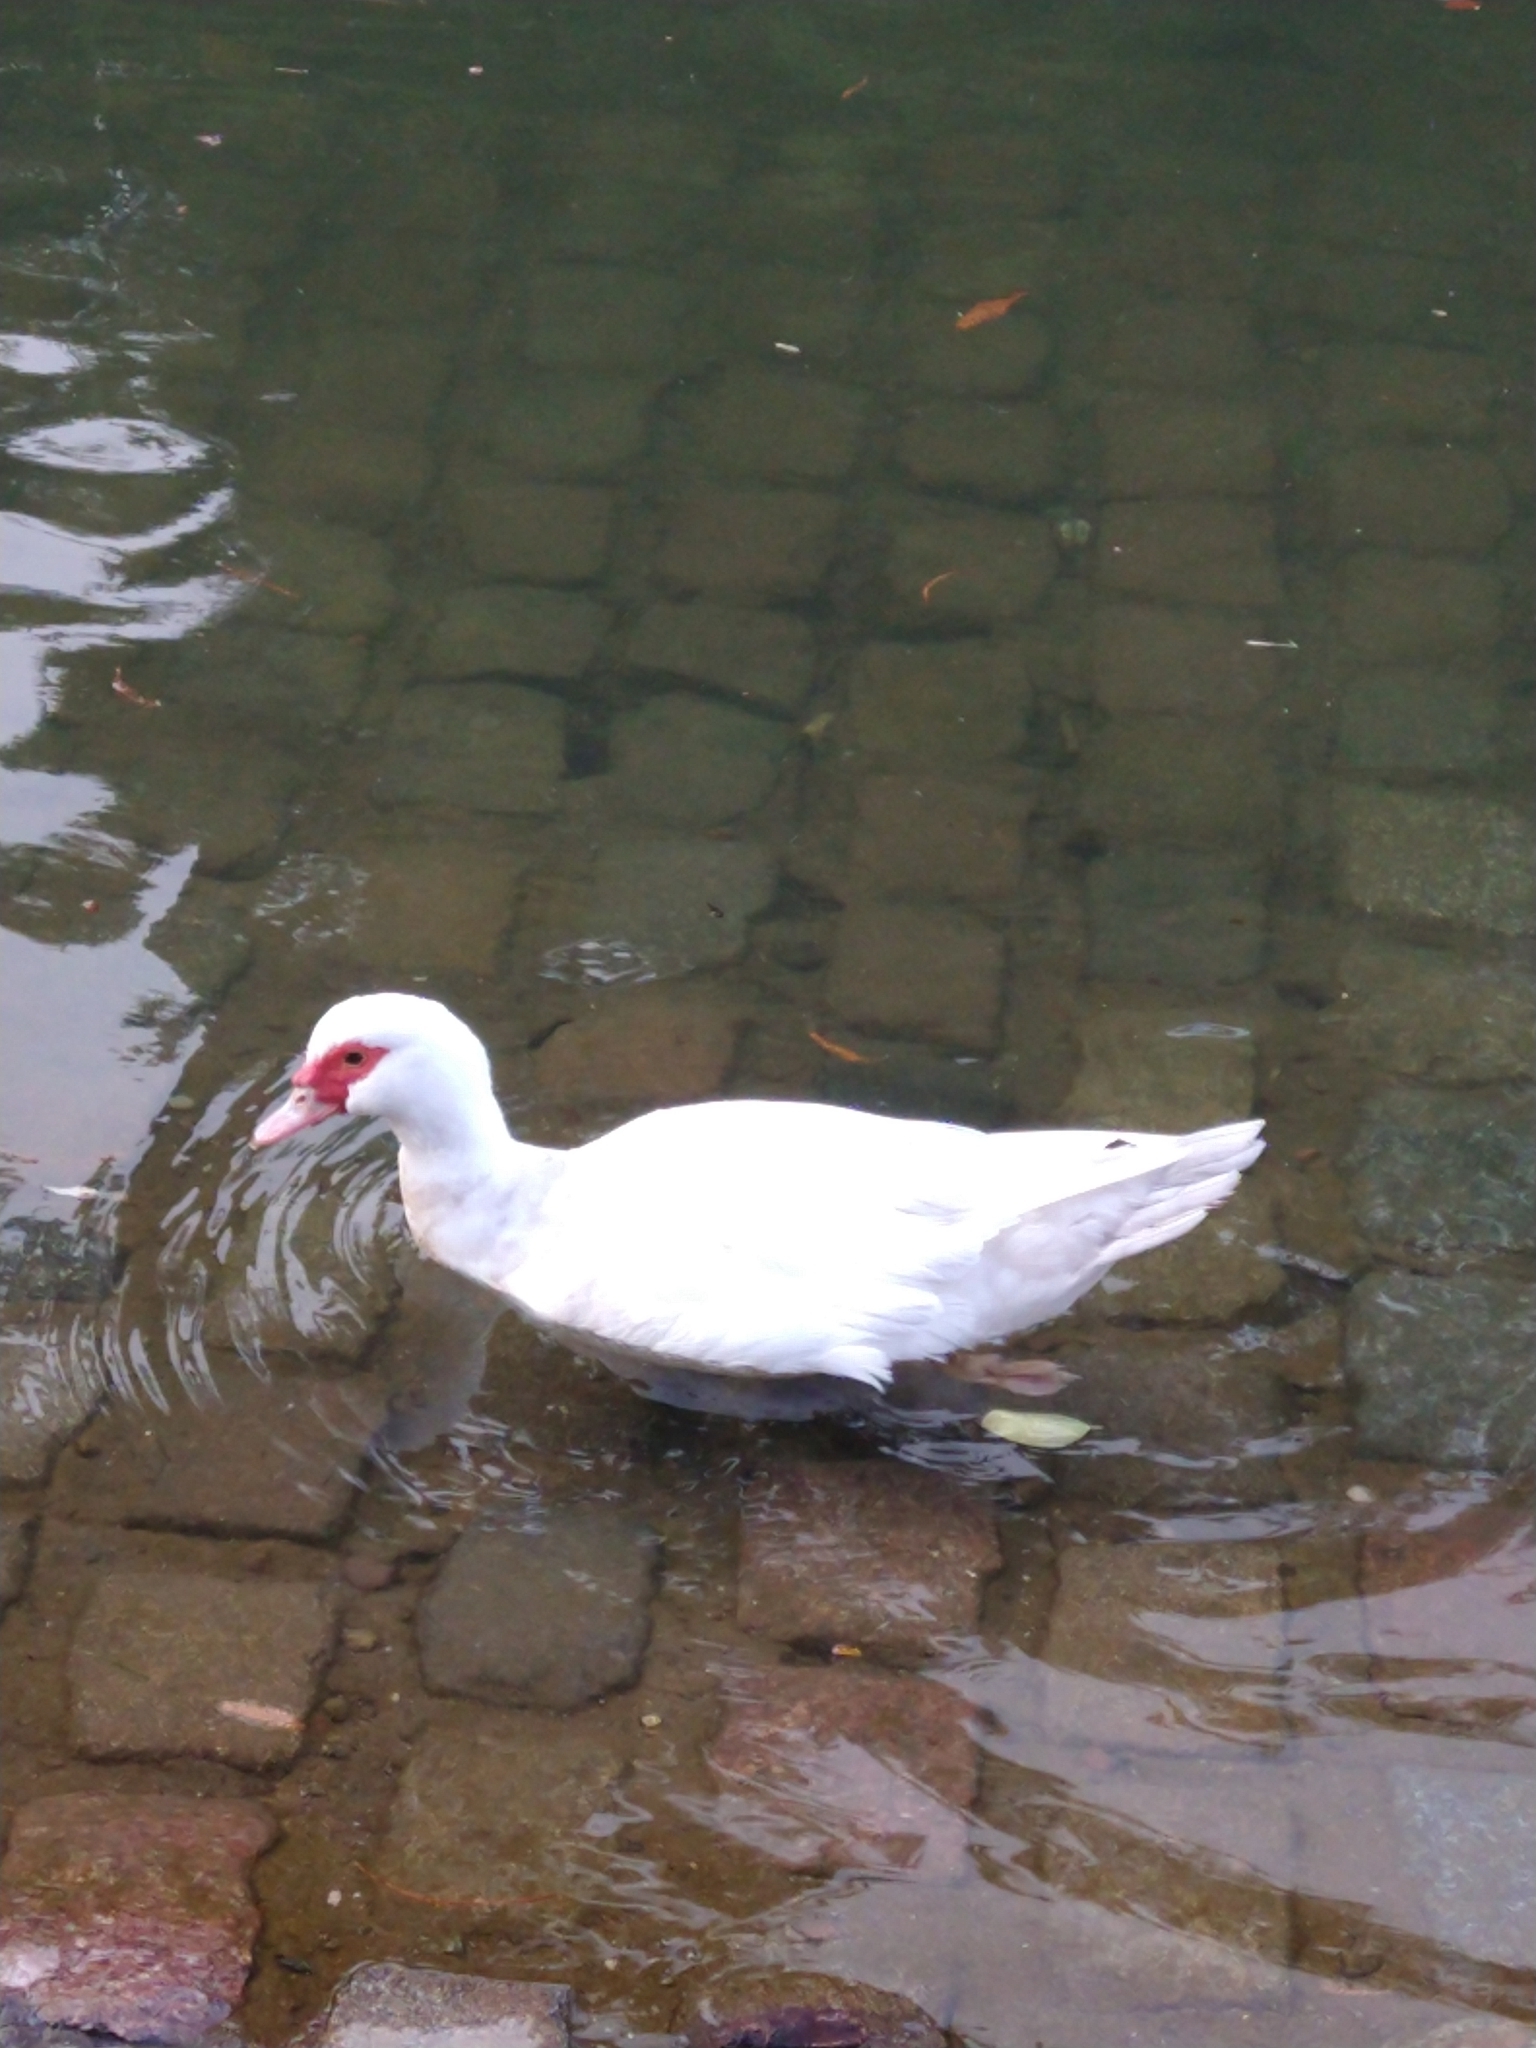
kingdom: Animalia
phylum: Chordata
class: Aves
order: Anseriformes
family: Anatidae
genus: Cairina
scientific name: Cairina moschata
